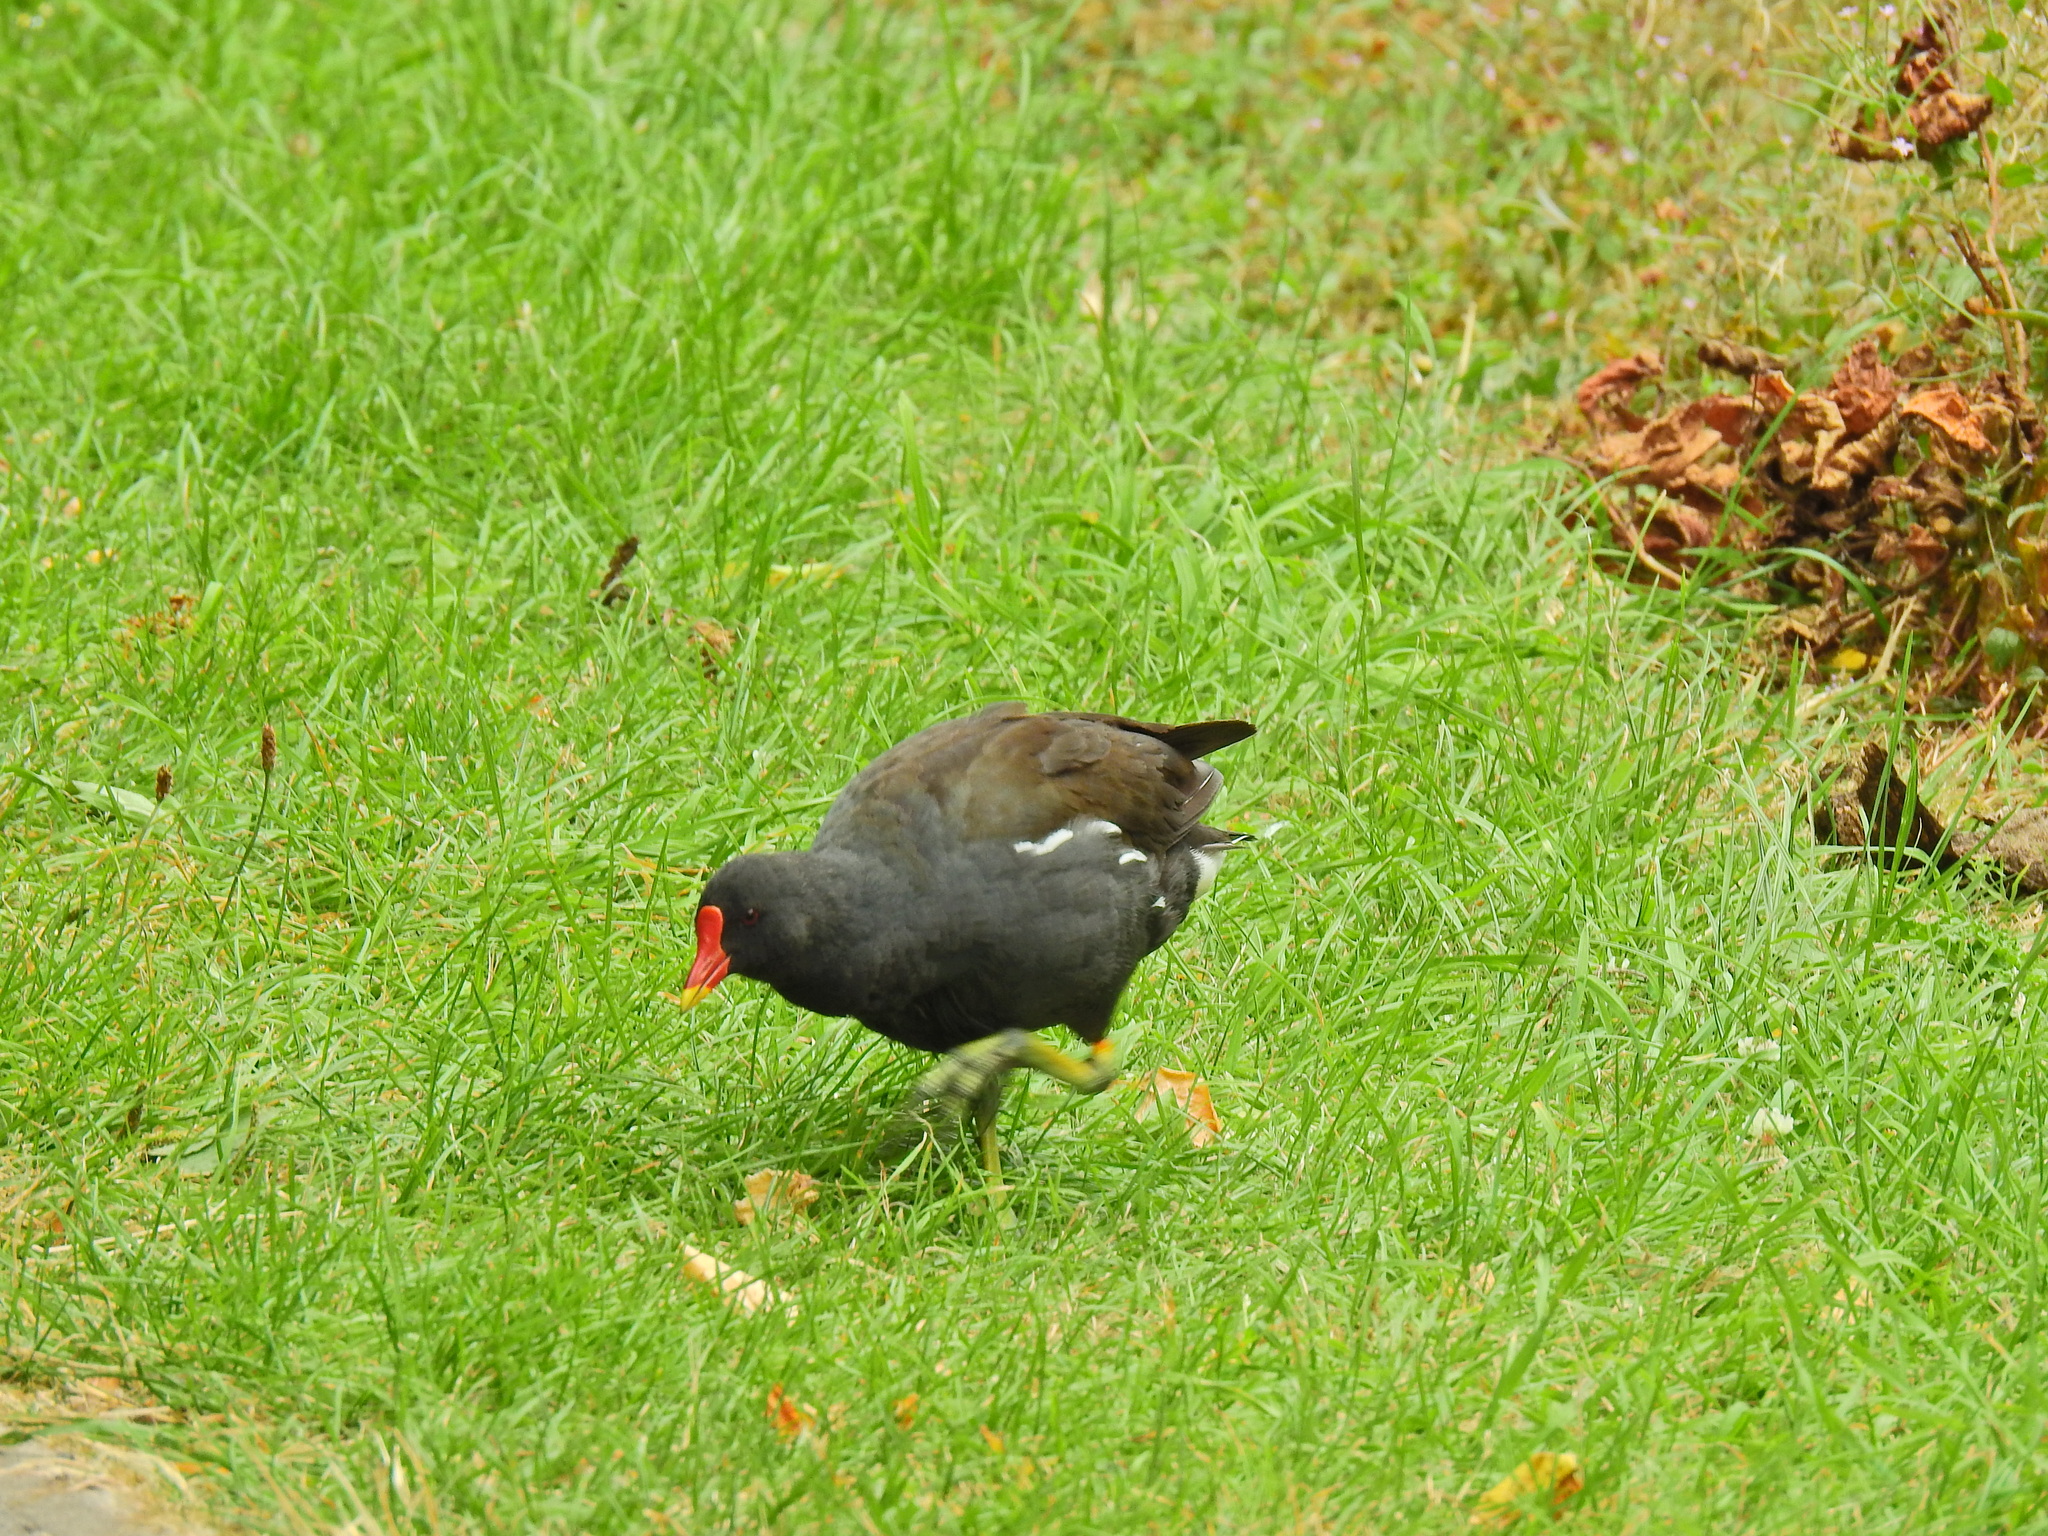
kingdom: Animalia
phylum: Chordata
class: Aves
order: Gruiformes
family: Rallidae
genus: Gallinula
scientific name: Gallinula chloropus
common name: Common moorhen
